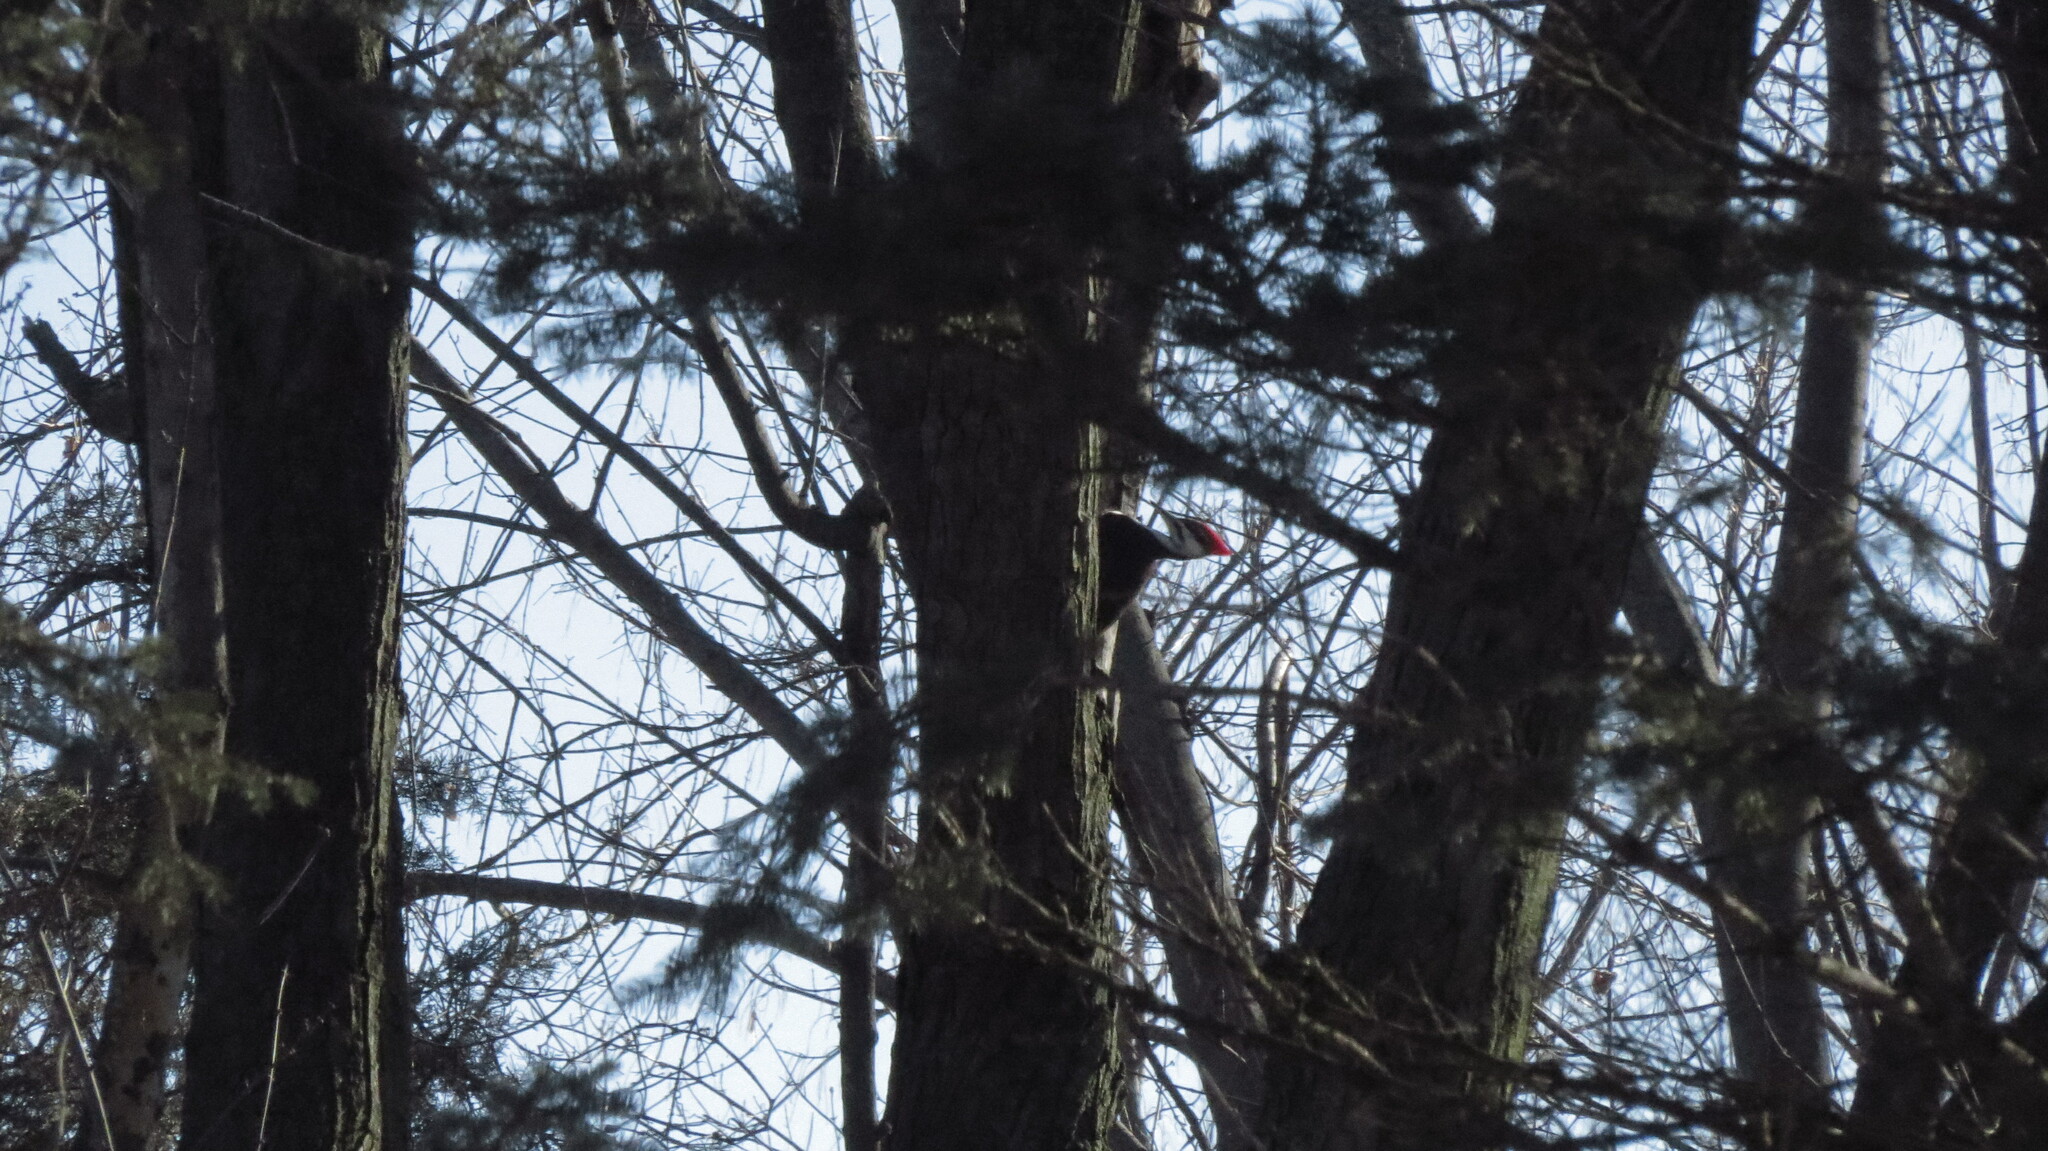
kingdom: Animalia
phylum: Chordata
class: Aves
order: Piciformes
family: Picidae
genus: Dryocopus
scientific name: Dryocopus pileatus
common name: Pileated woodpecker
